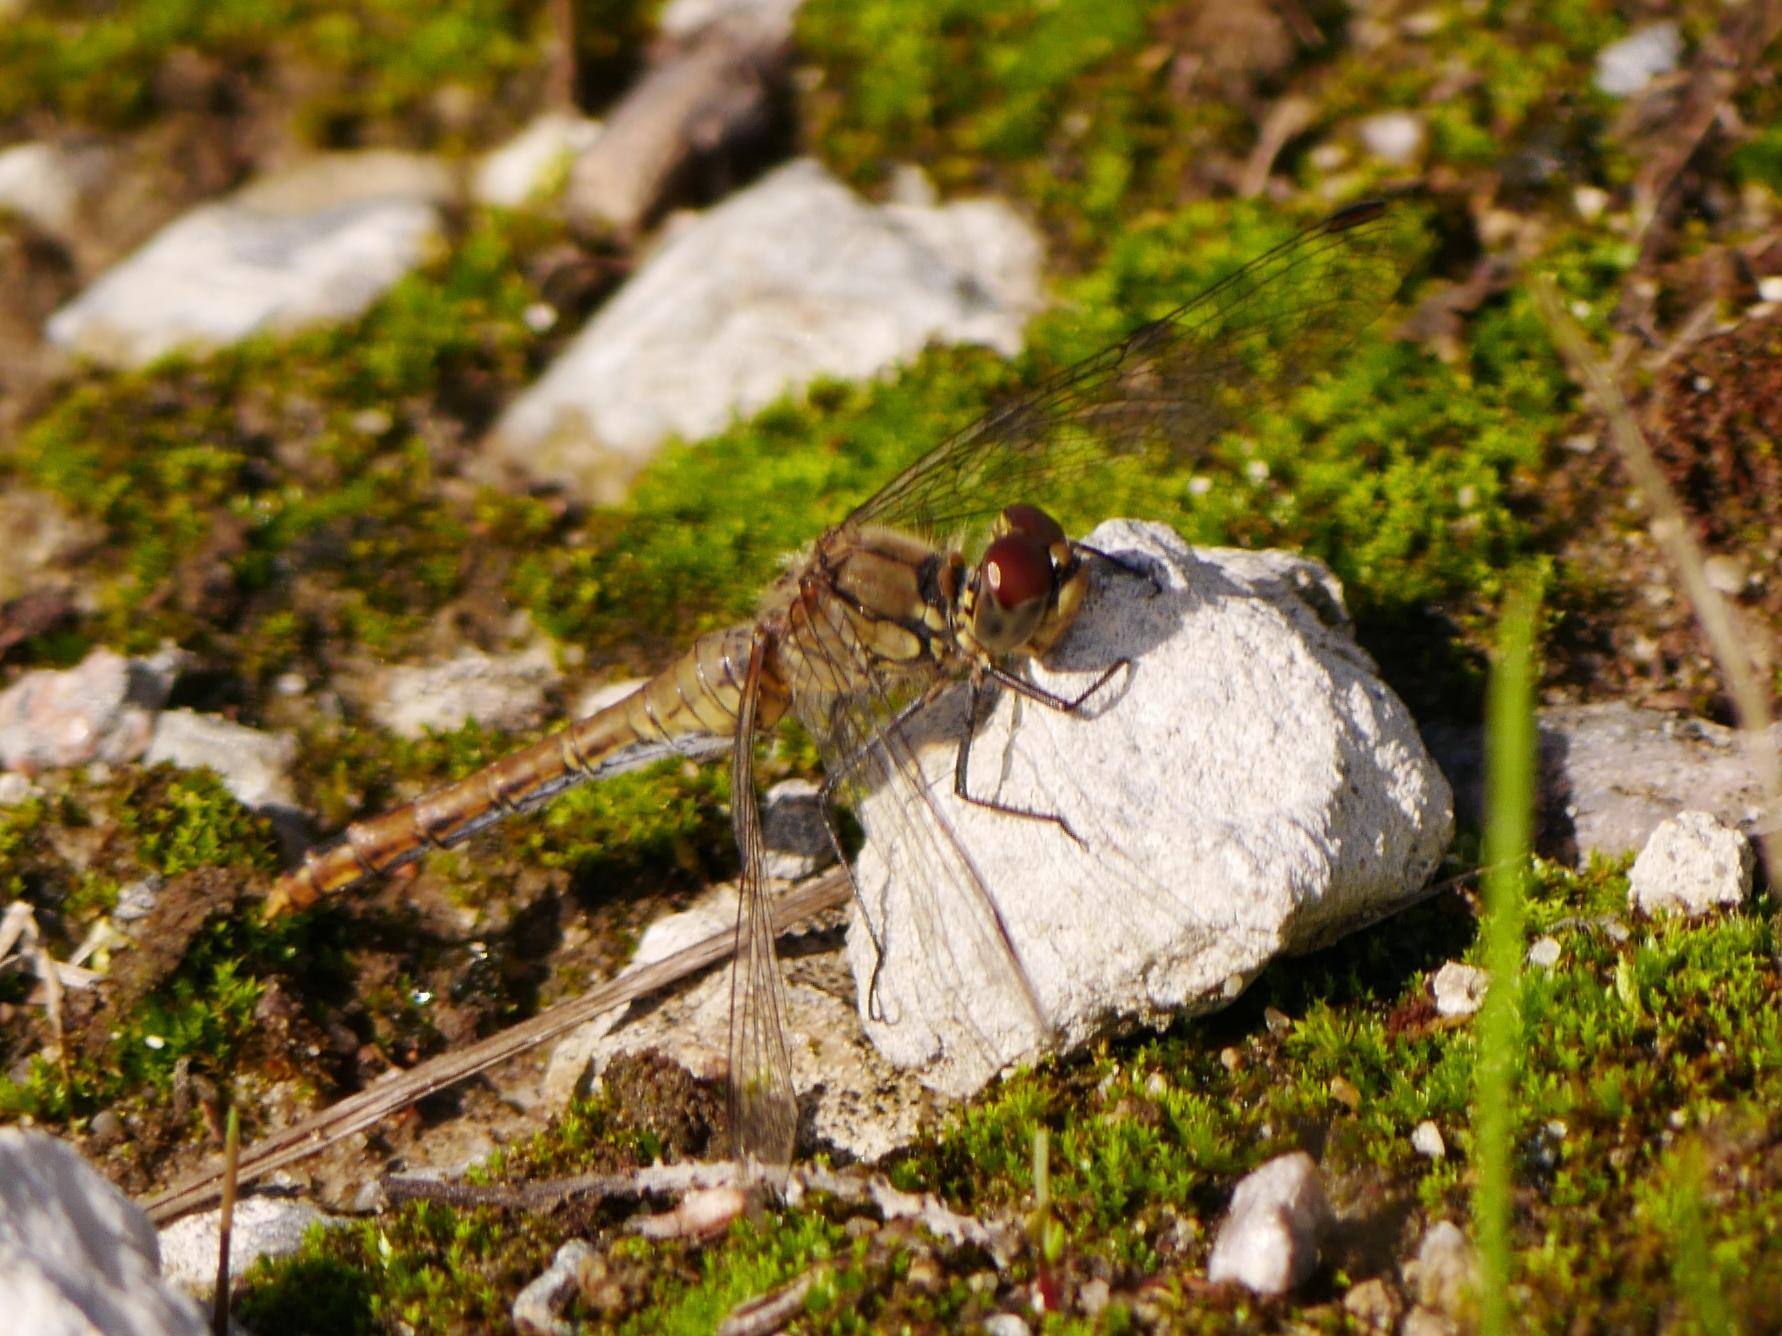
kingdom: Animalia
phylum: Arthropoda
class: Insecta
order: Odonata
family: Libellulidae
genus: Sympetrum
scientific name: Sympetrum sanguineum
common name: Ruddy darter
